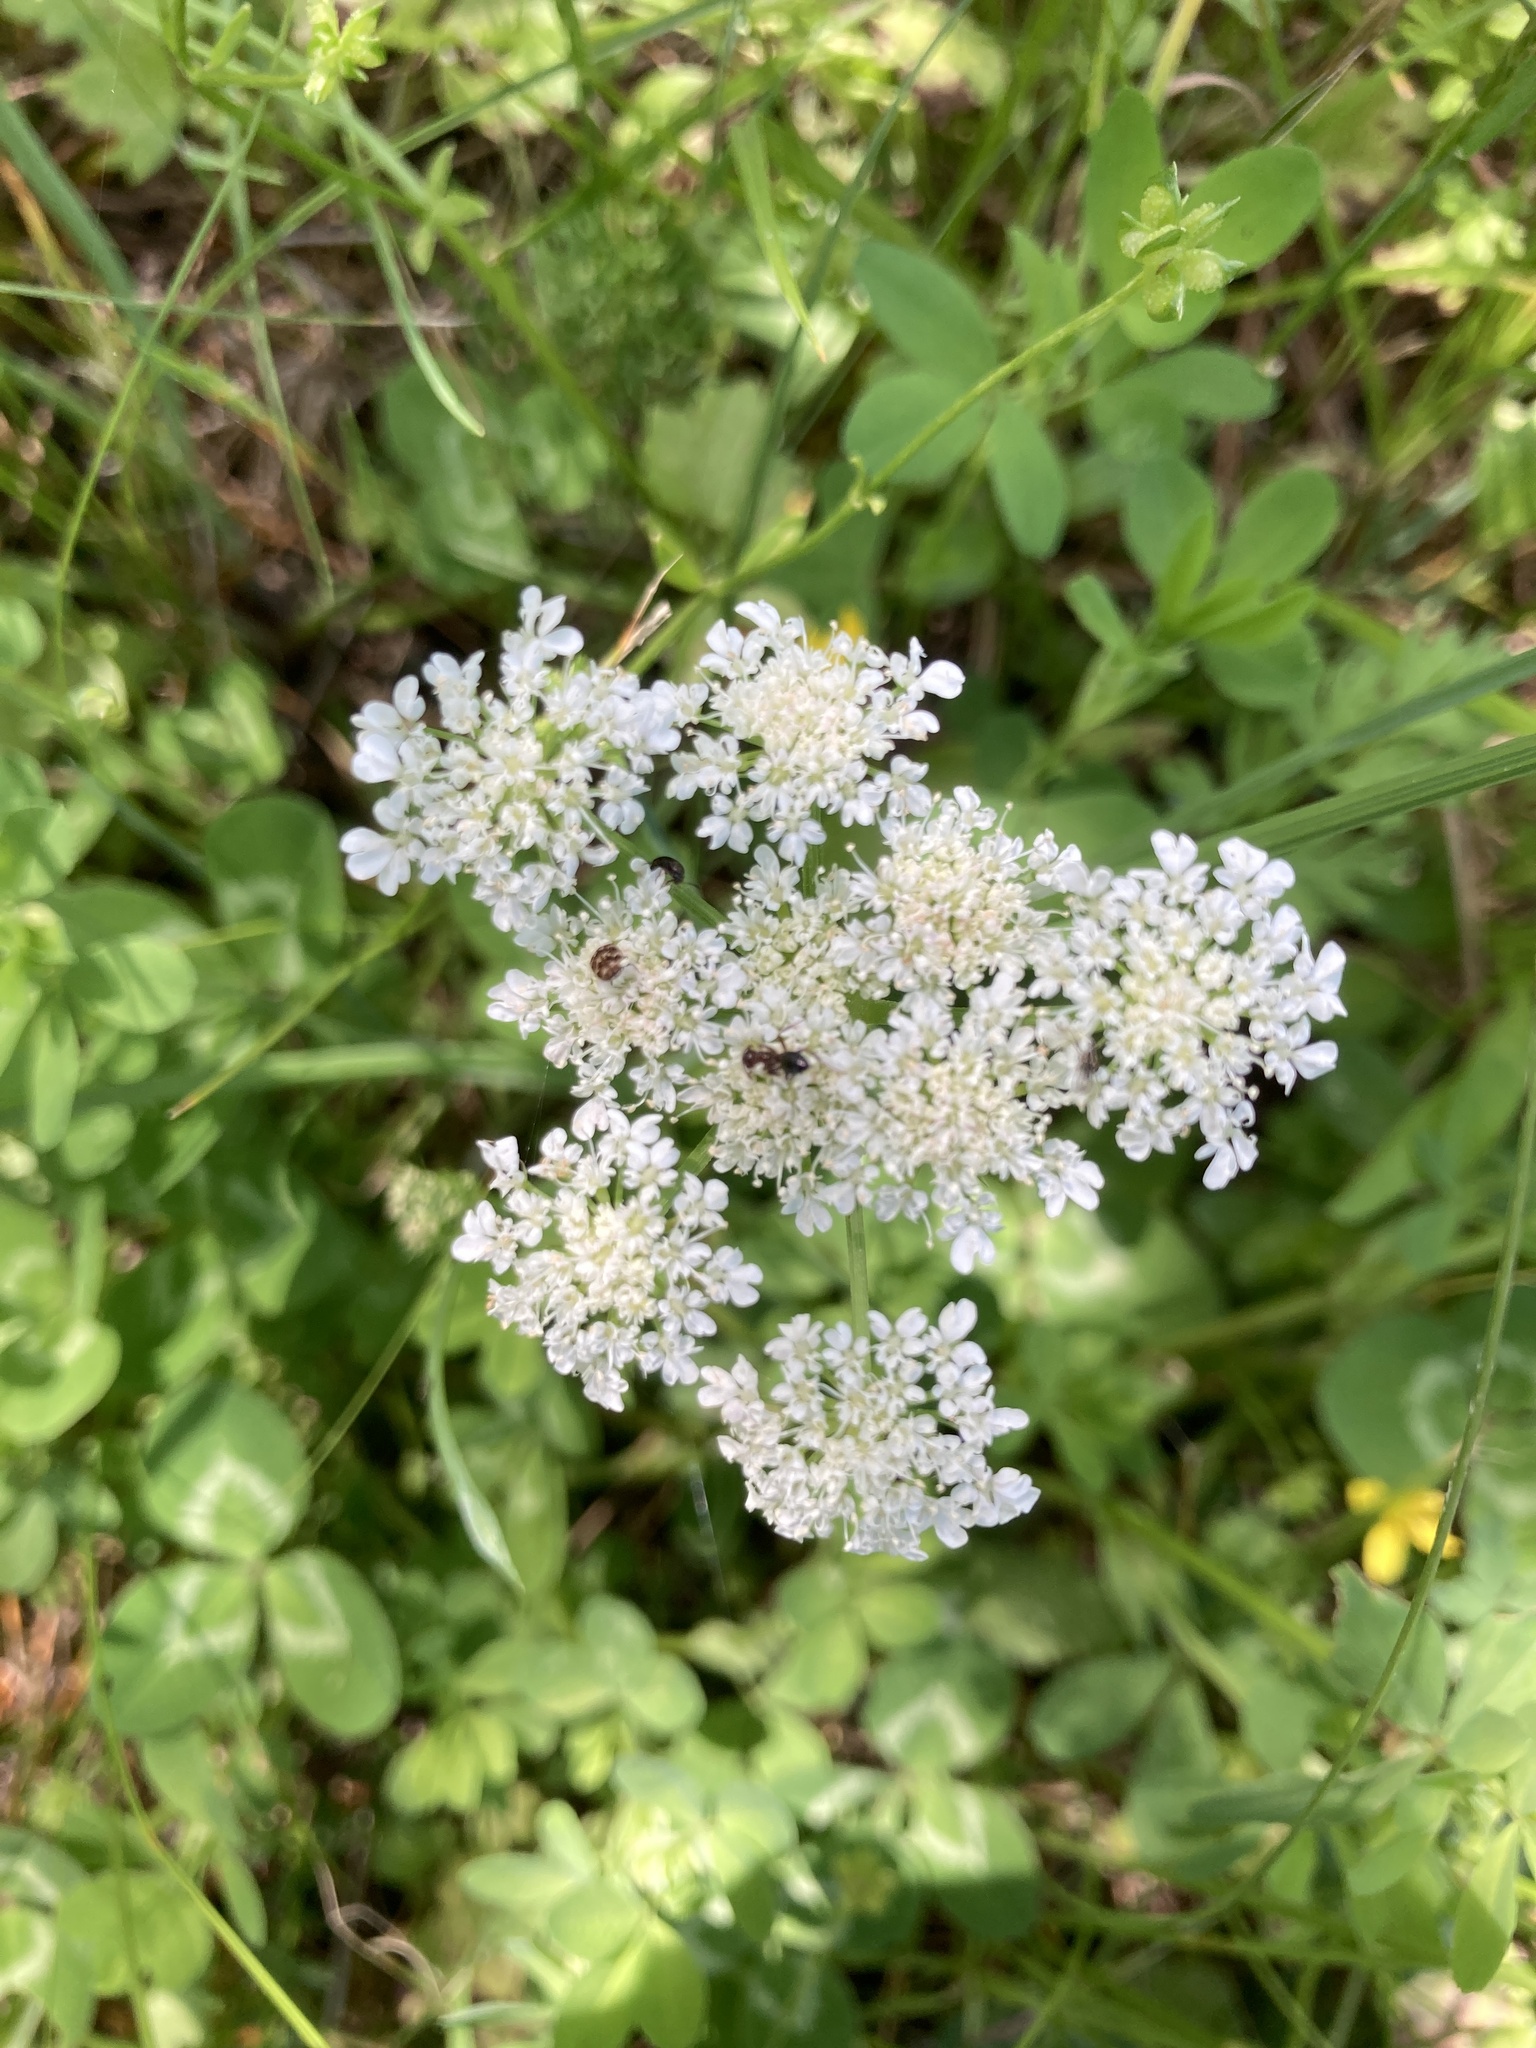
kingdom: Plantae
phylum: Tracheophyta
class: Magnoliopsida
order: Apiales
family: Apiaceae
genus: Daucus
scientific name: Daucus carota
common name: Wild carrot
